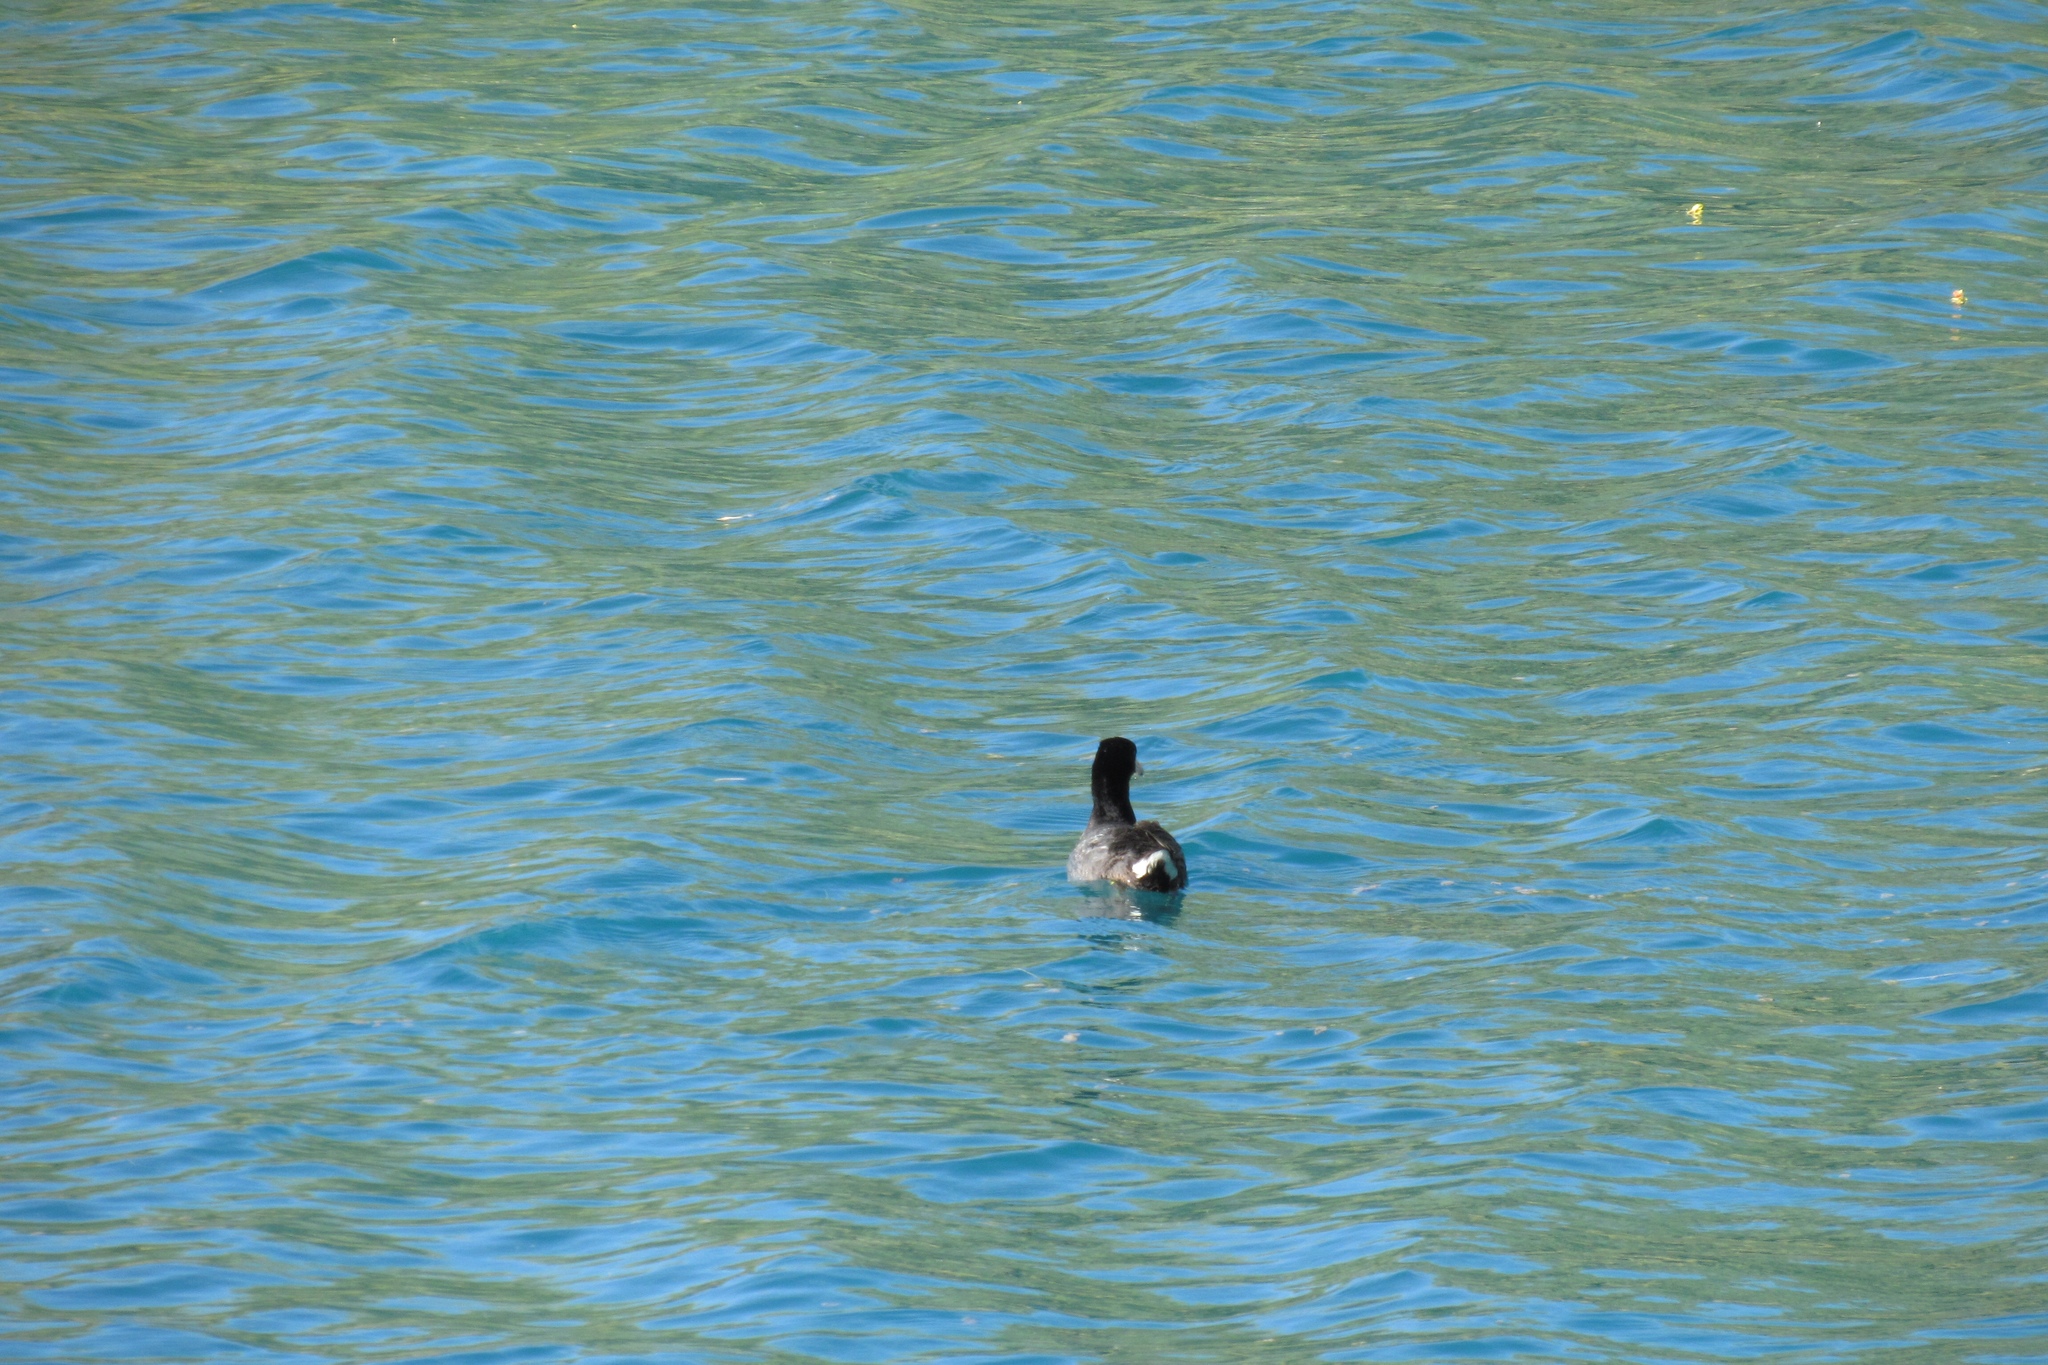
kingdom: Animalia
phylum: Chordata
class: Aves
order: Gruiformes
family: Rallidae
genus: Fulica
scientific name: Fulica americana
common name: American coot
